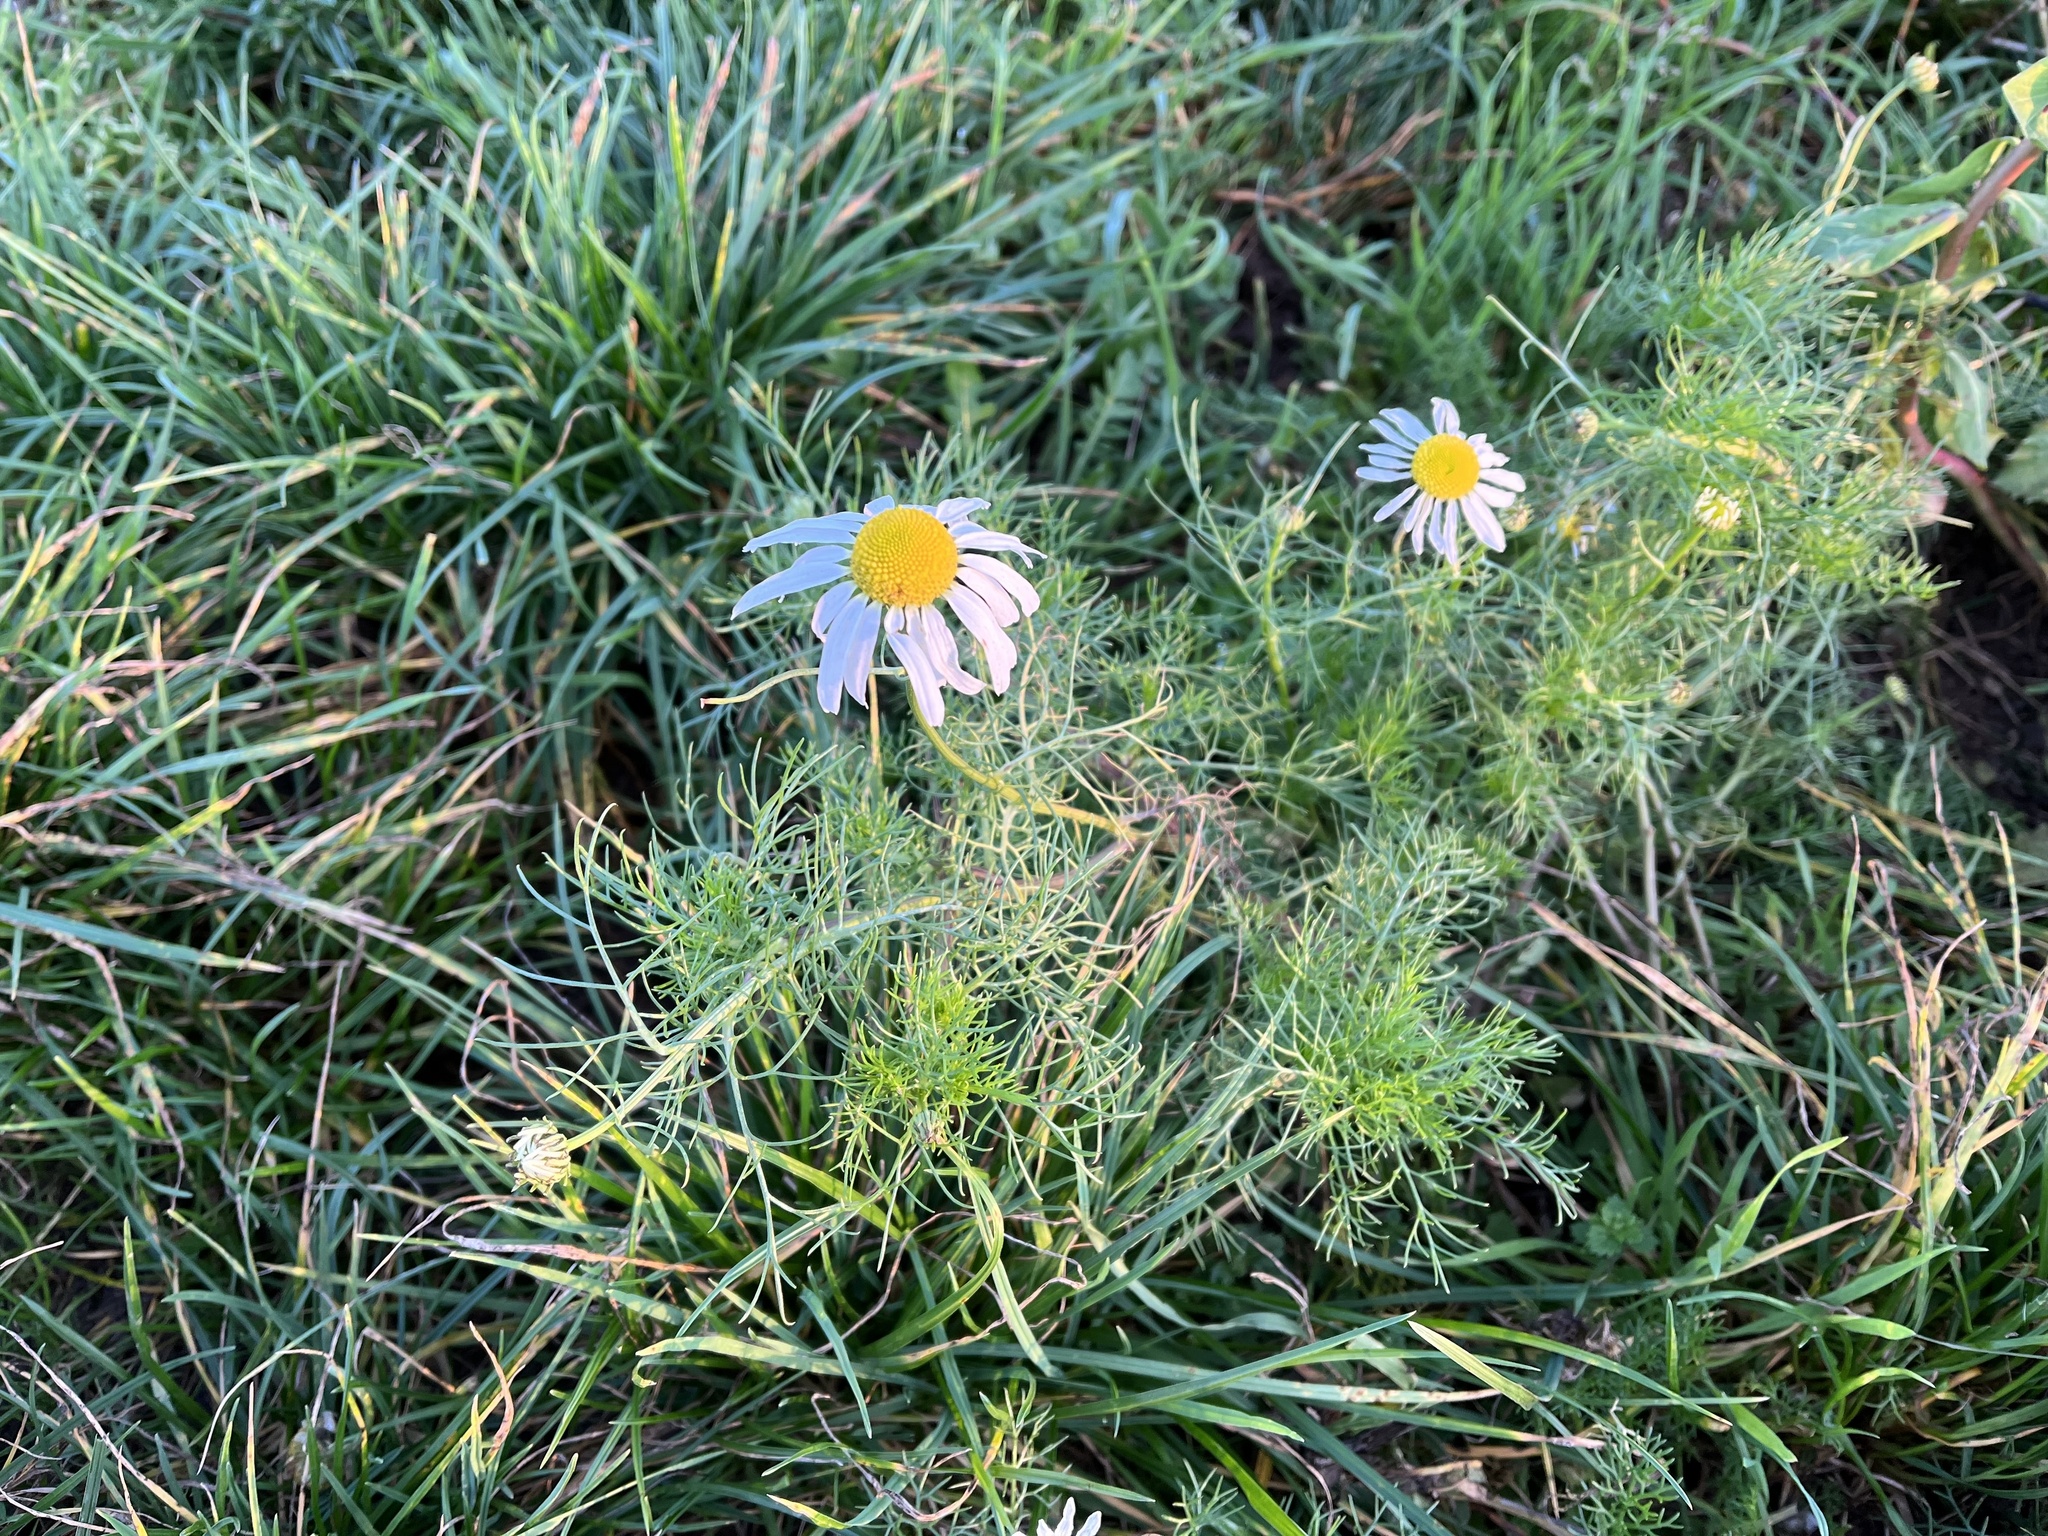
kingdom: Plantae
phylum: Tracheophyta
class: Magnoliopsida
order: Asterales
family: Asteraceae
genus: Tripleurospermum
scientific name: Tripleurospermum inodorum
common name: Scentless mayweed
